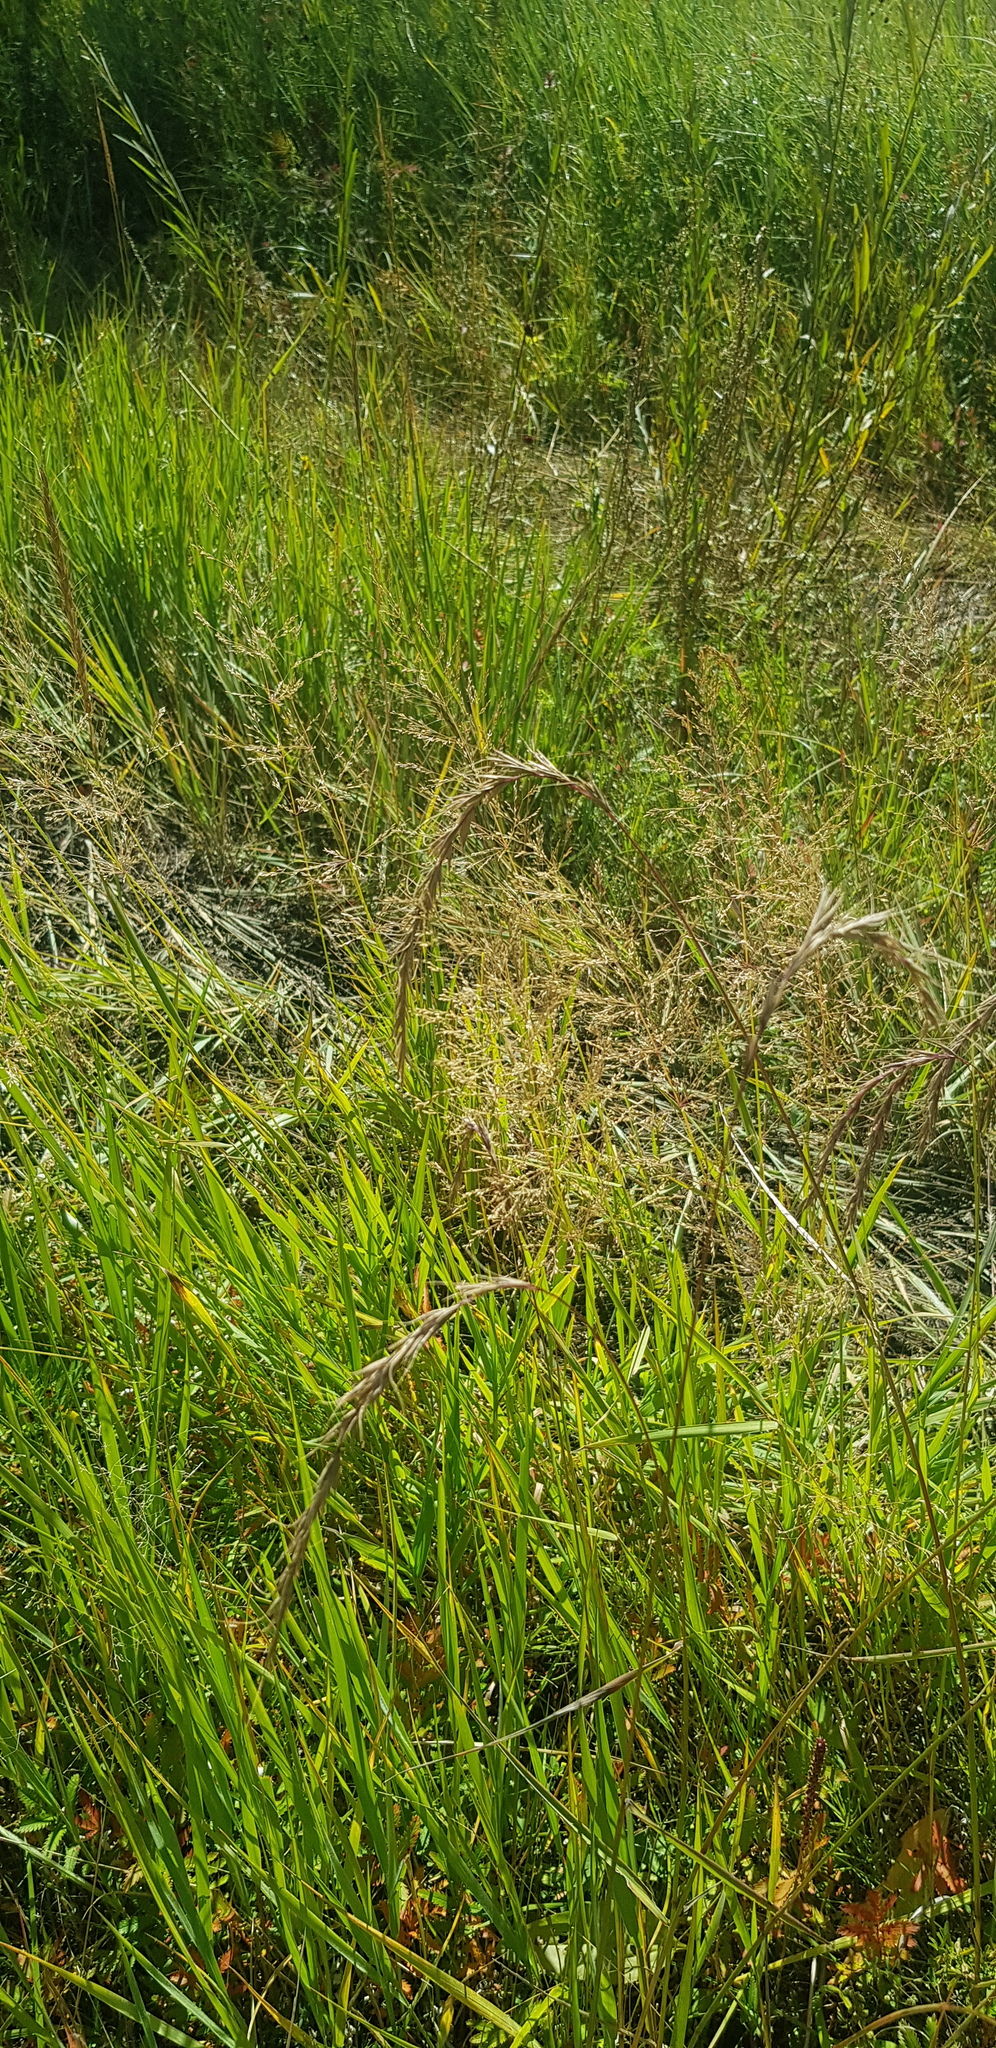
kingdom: Plantae
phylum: Tracheophyta
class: Liliopsida
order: Poales
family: Poaceae
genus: Elymus
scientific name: Elymus sibiricus
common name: Siberian wildrye
